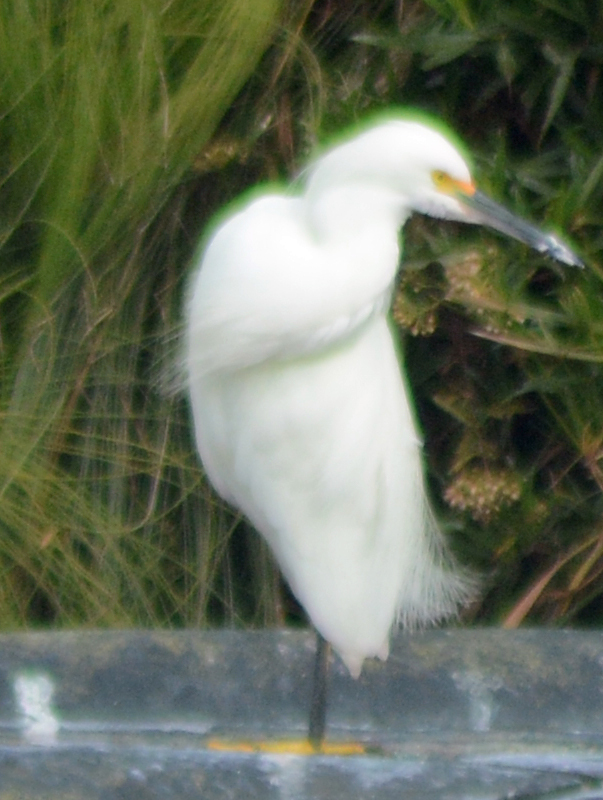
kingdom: Animalia
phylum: Chordata
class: Aves
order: Pelecaniformes
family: Ardeidae
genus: Egretta
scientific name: Egretta thula
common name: Snowy egret
